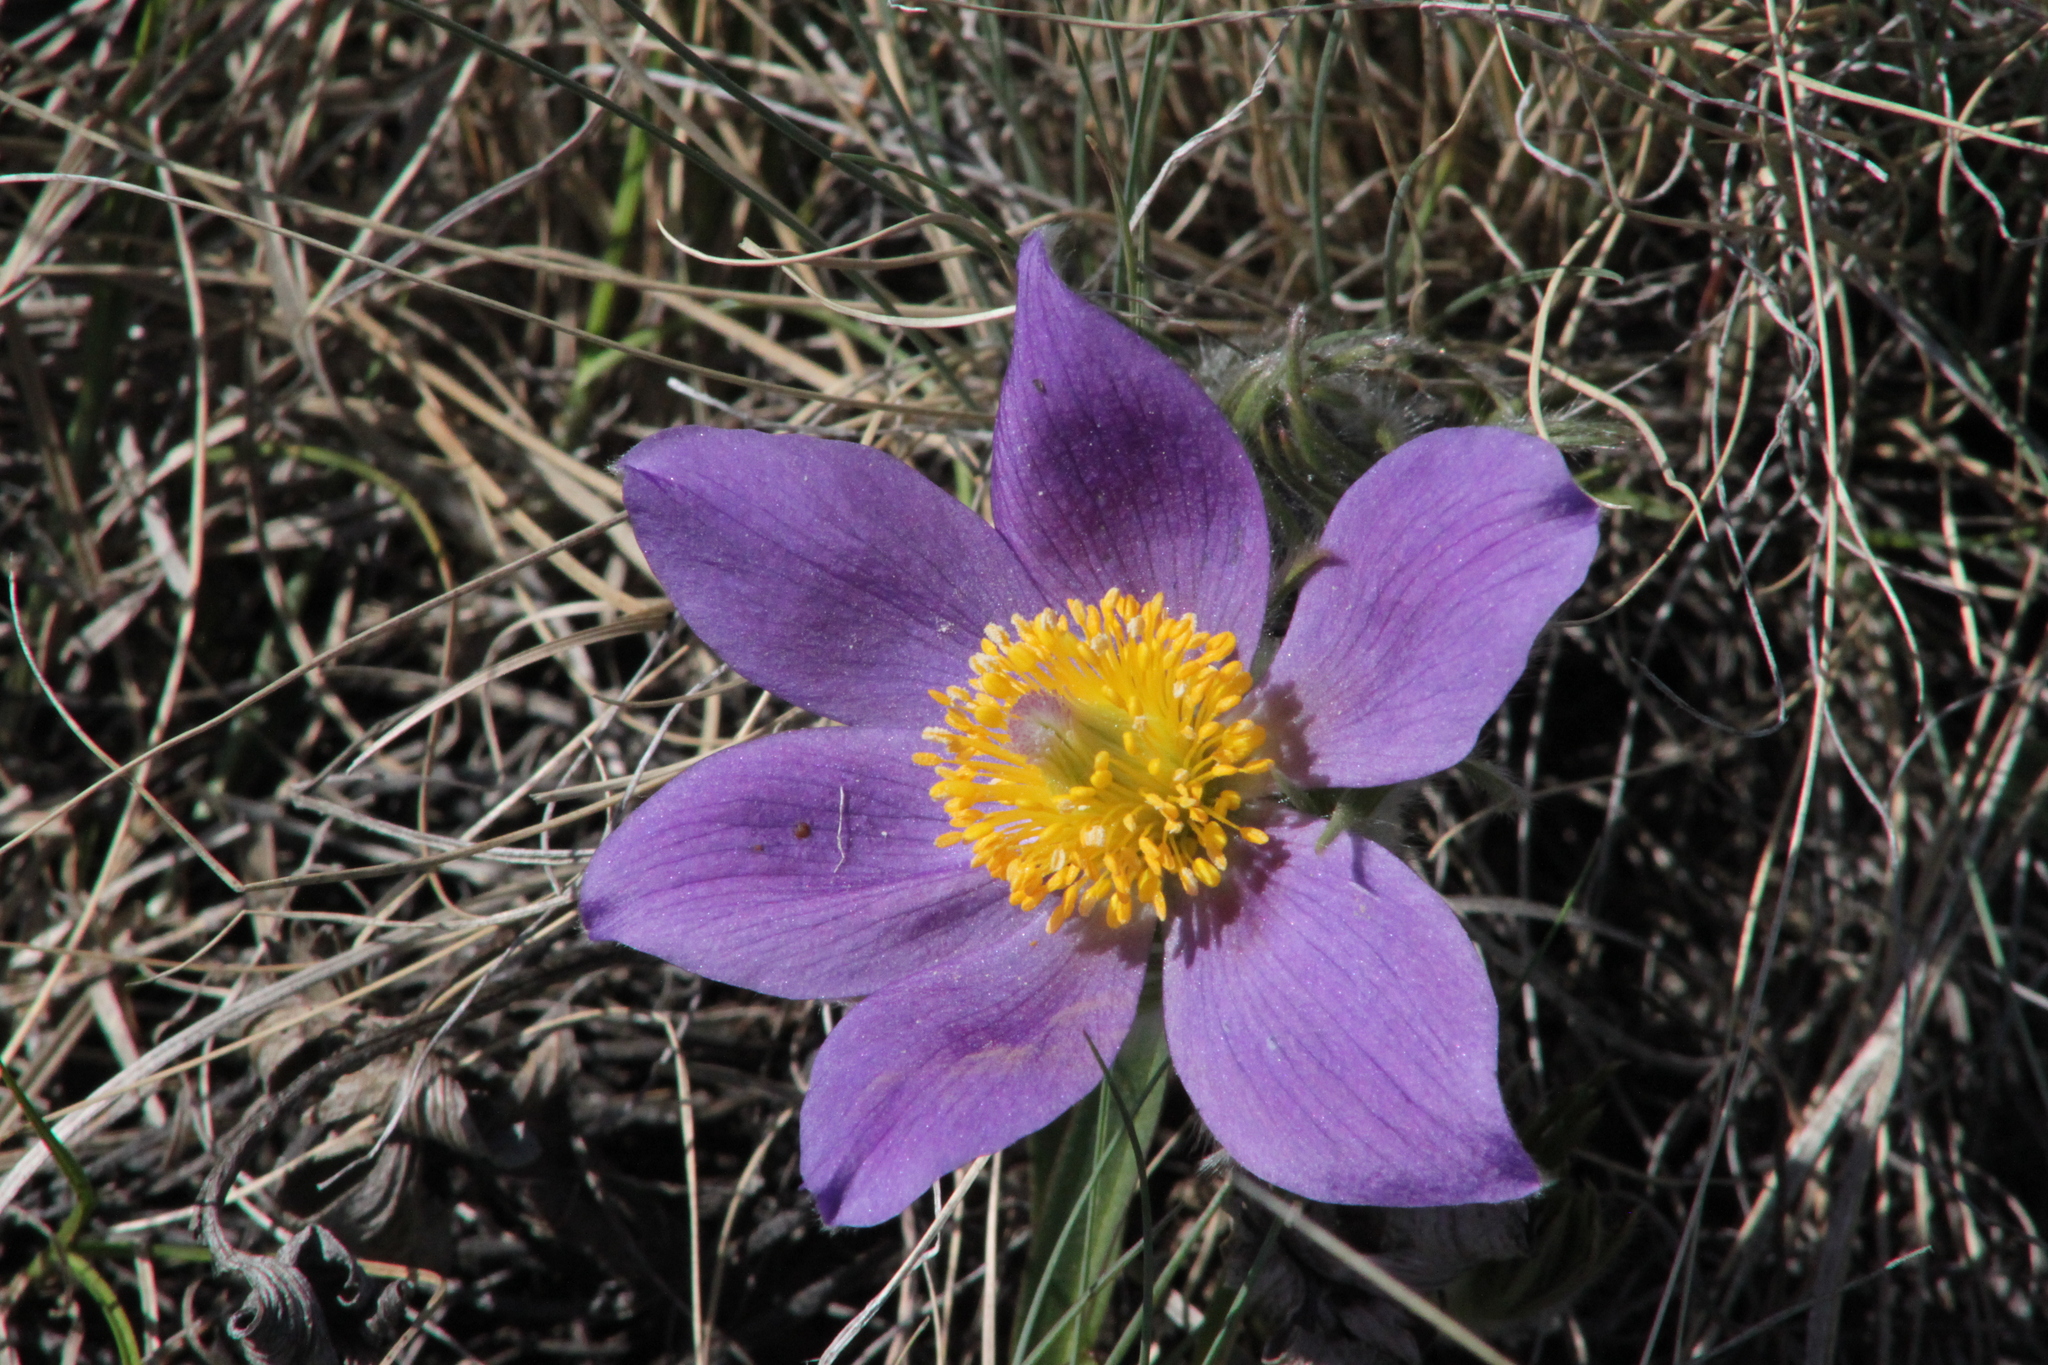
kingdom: Plantae
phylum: Tracheophyta
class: Magnoliopsida
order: Ranunculales
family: Ranunculaceae
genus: Pulsatilla
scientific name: Pulsatilla patens
